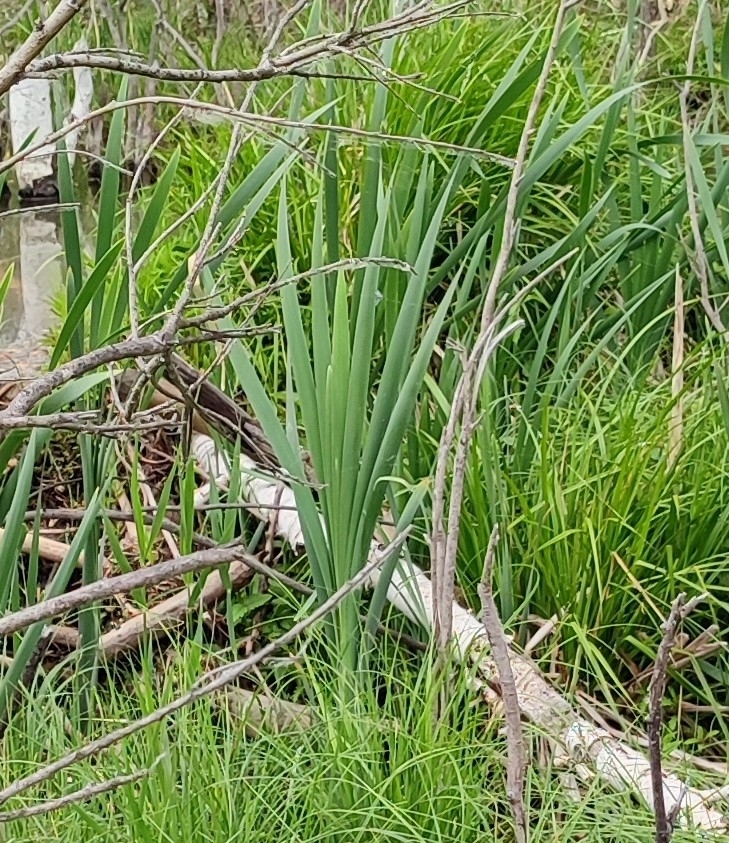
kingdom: Plantae
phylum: Tracheophyta
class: Liliopsida
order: Poales
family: Typhaceae
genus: Typha
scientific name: Typha latifolia
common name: Broadleaf cattail
